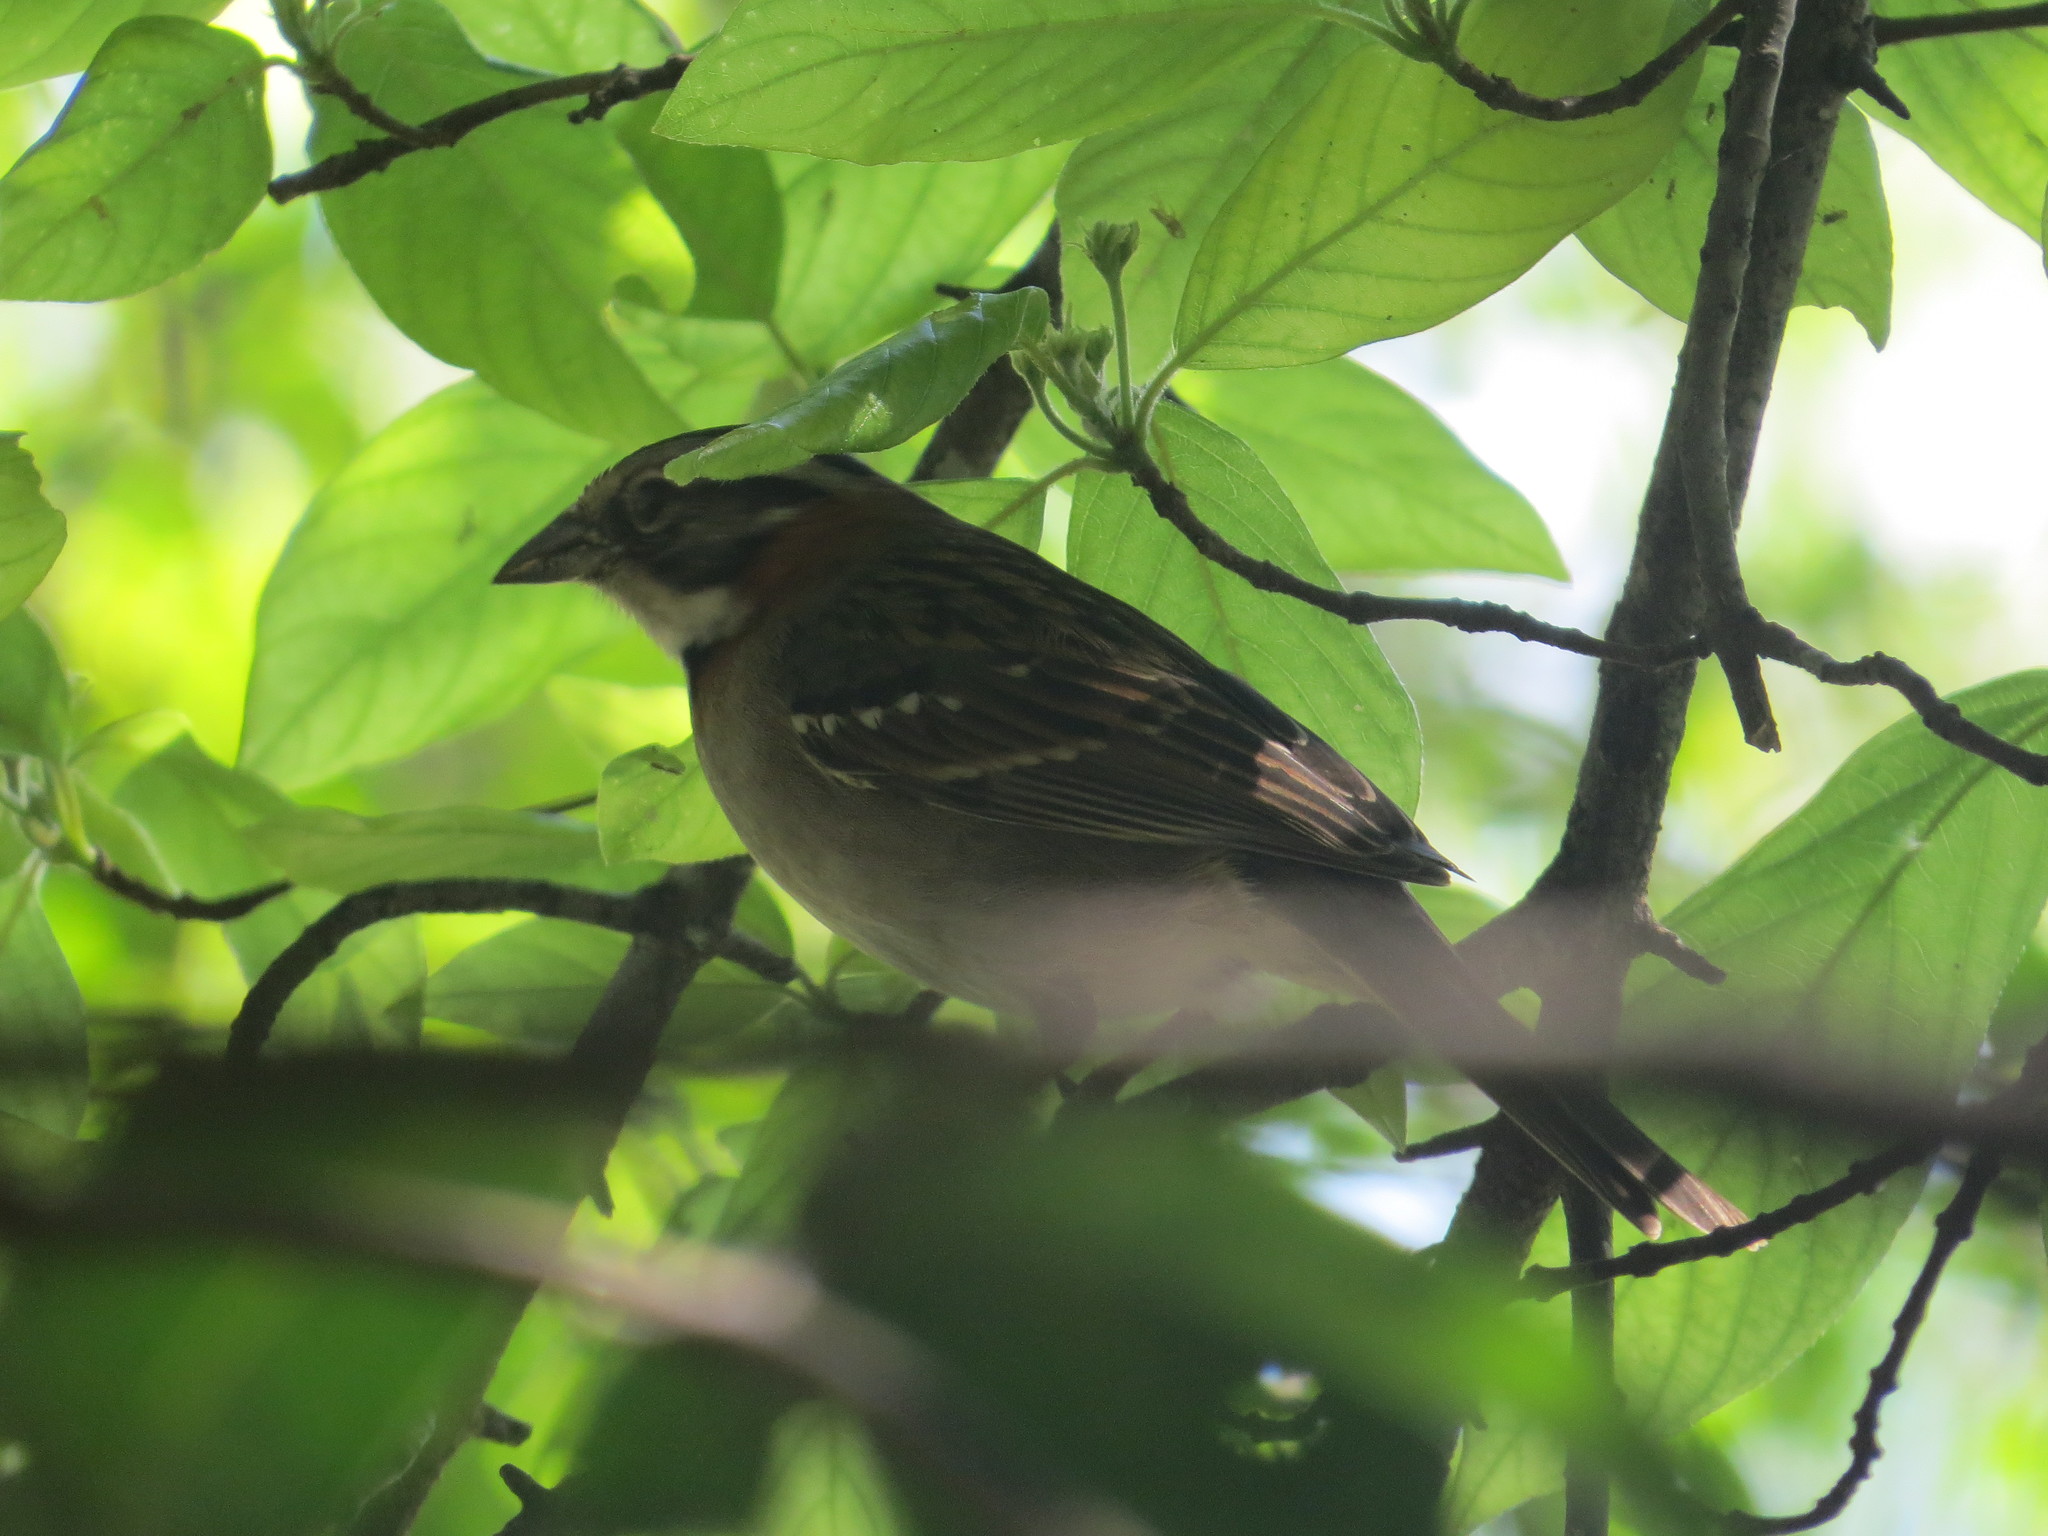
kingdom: Animalia
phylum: Chordata
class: Aves
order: Passeriformes
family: Passerellidae
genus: Zonotrichia
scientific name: Zonotrichia capensis
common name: Rufous-collared sparrow
